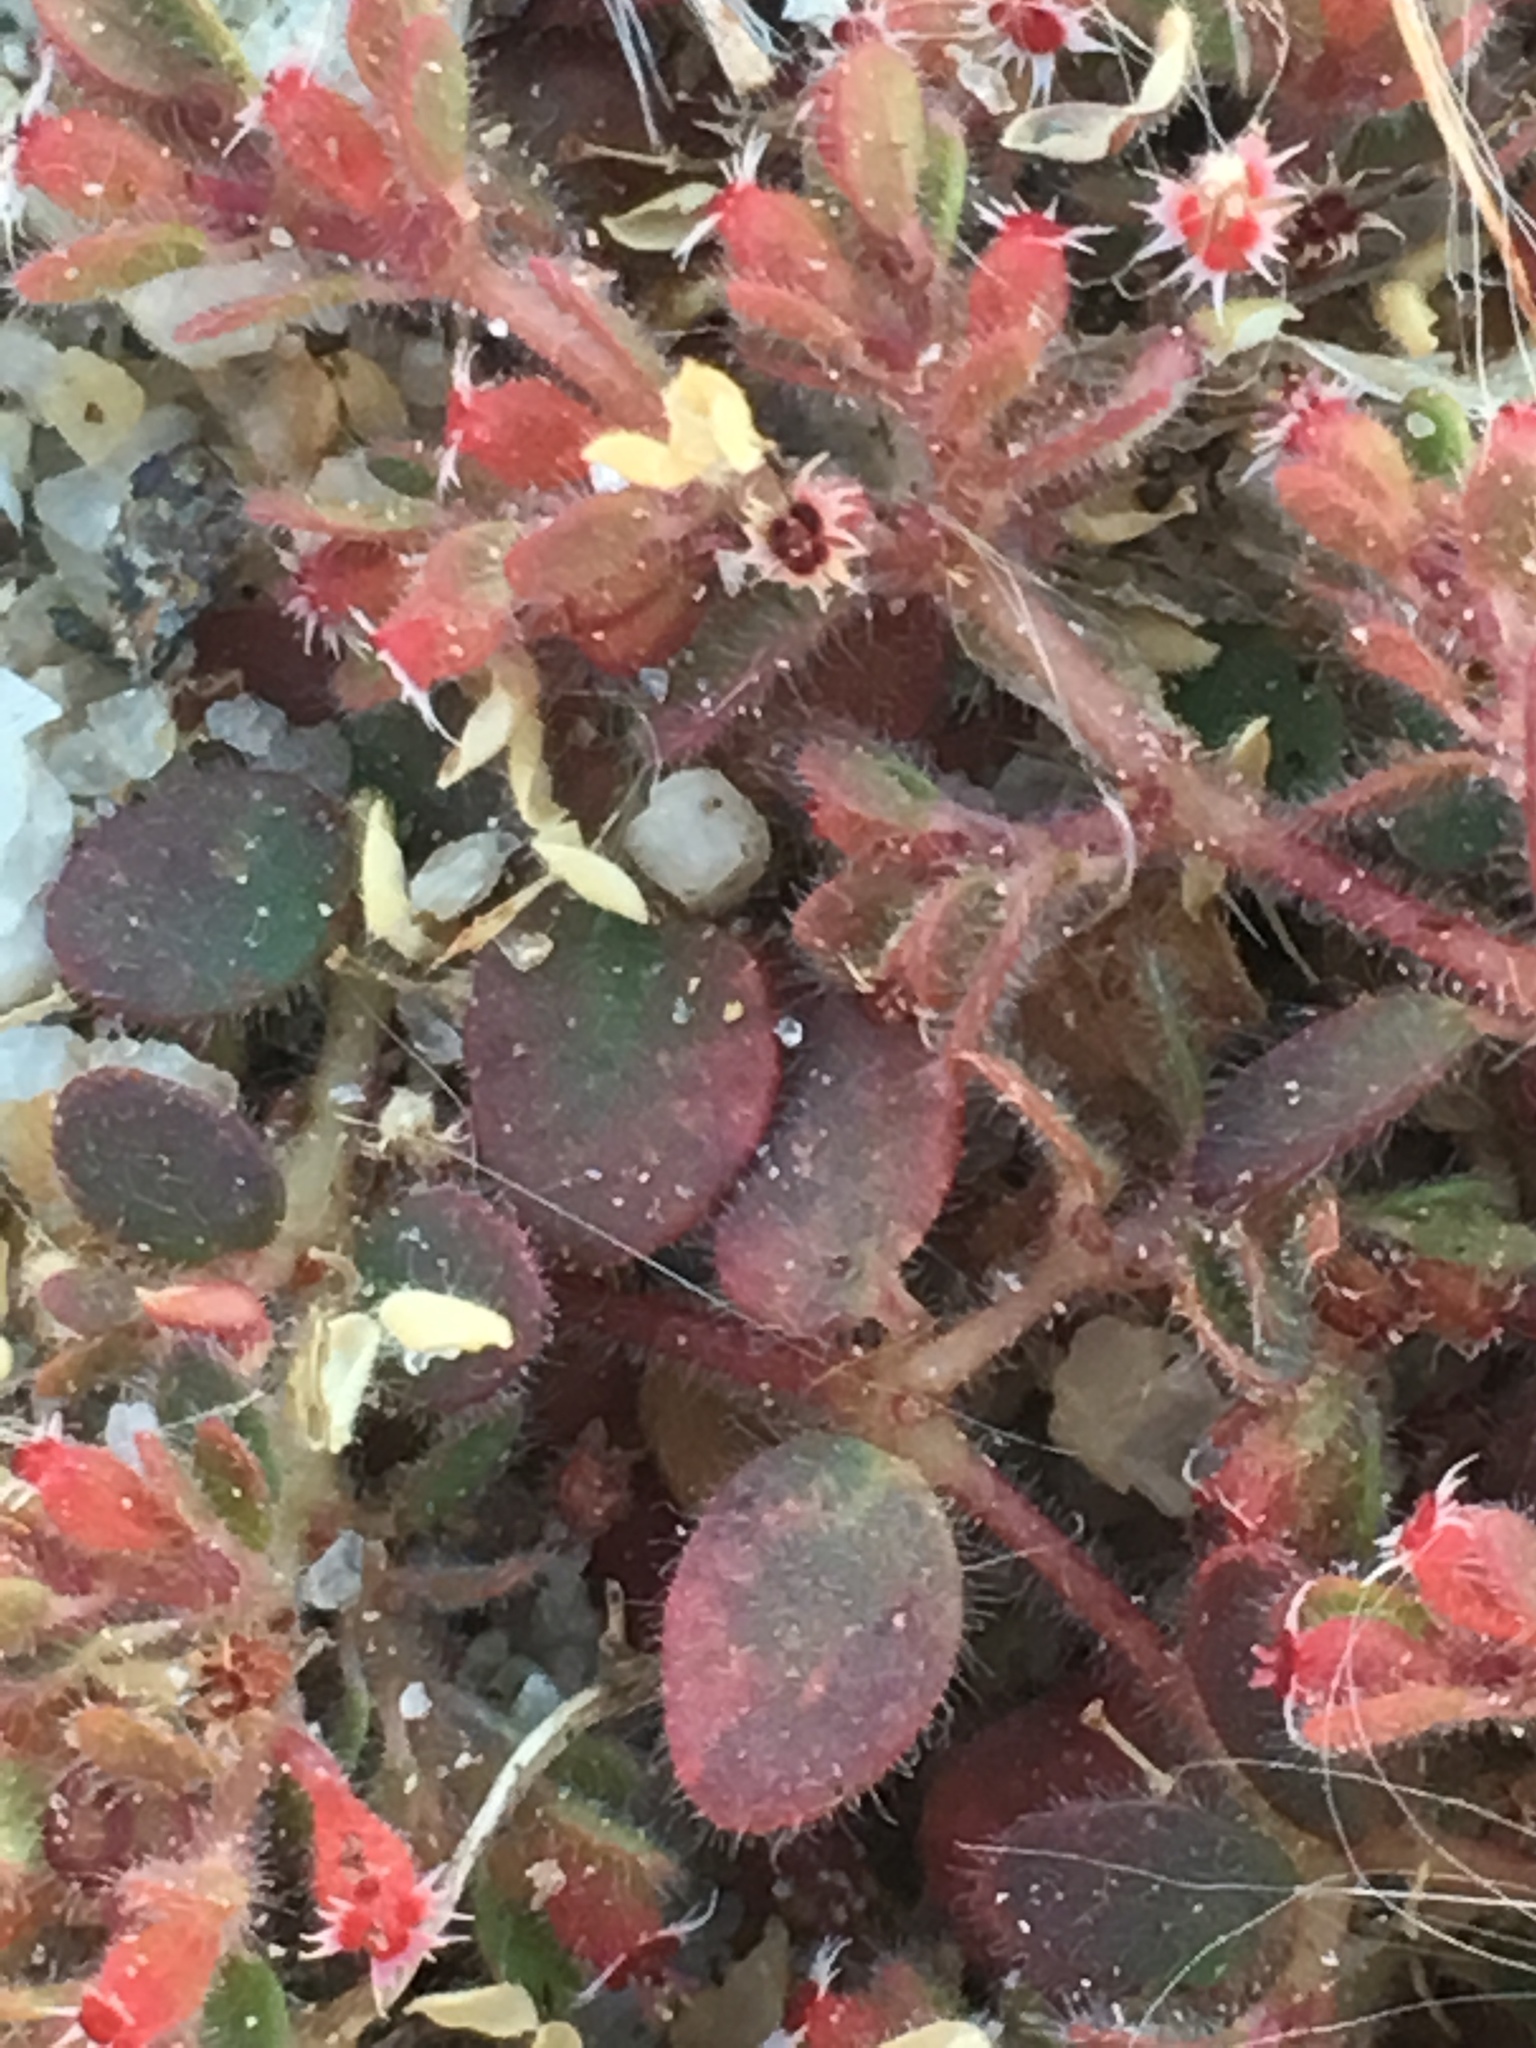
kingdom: Plantae
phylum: Tracheophyta
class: Magnoliopsida
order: Malpighiales
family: Euphorbiaceae
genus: Euphorbia
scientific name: Euphorbia setiloba
